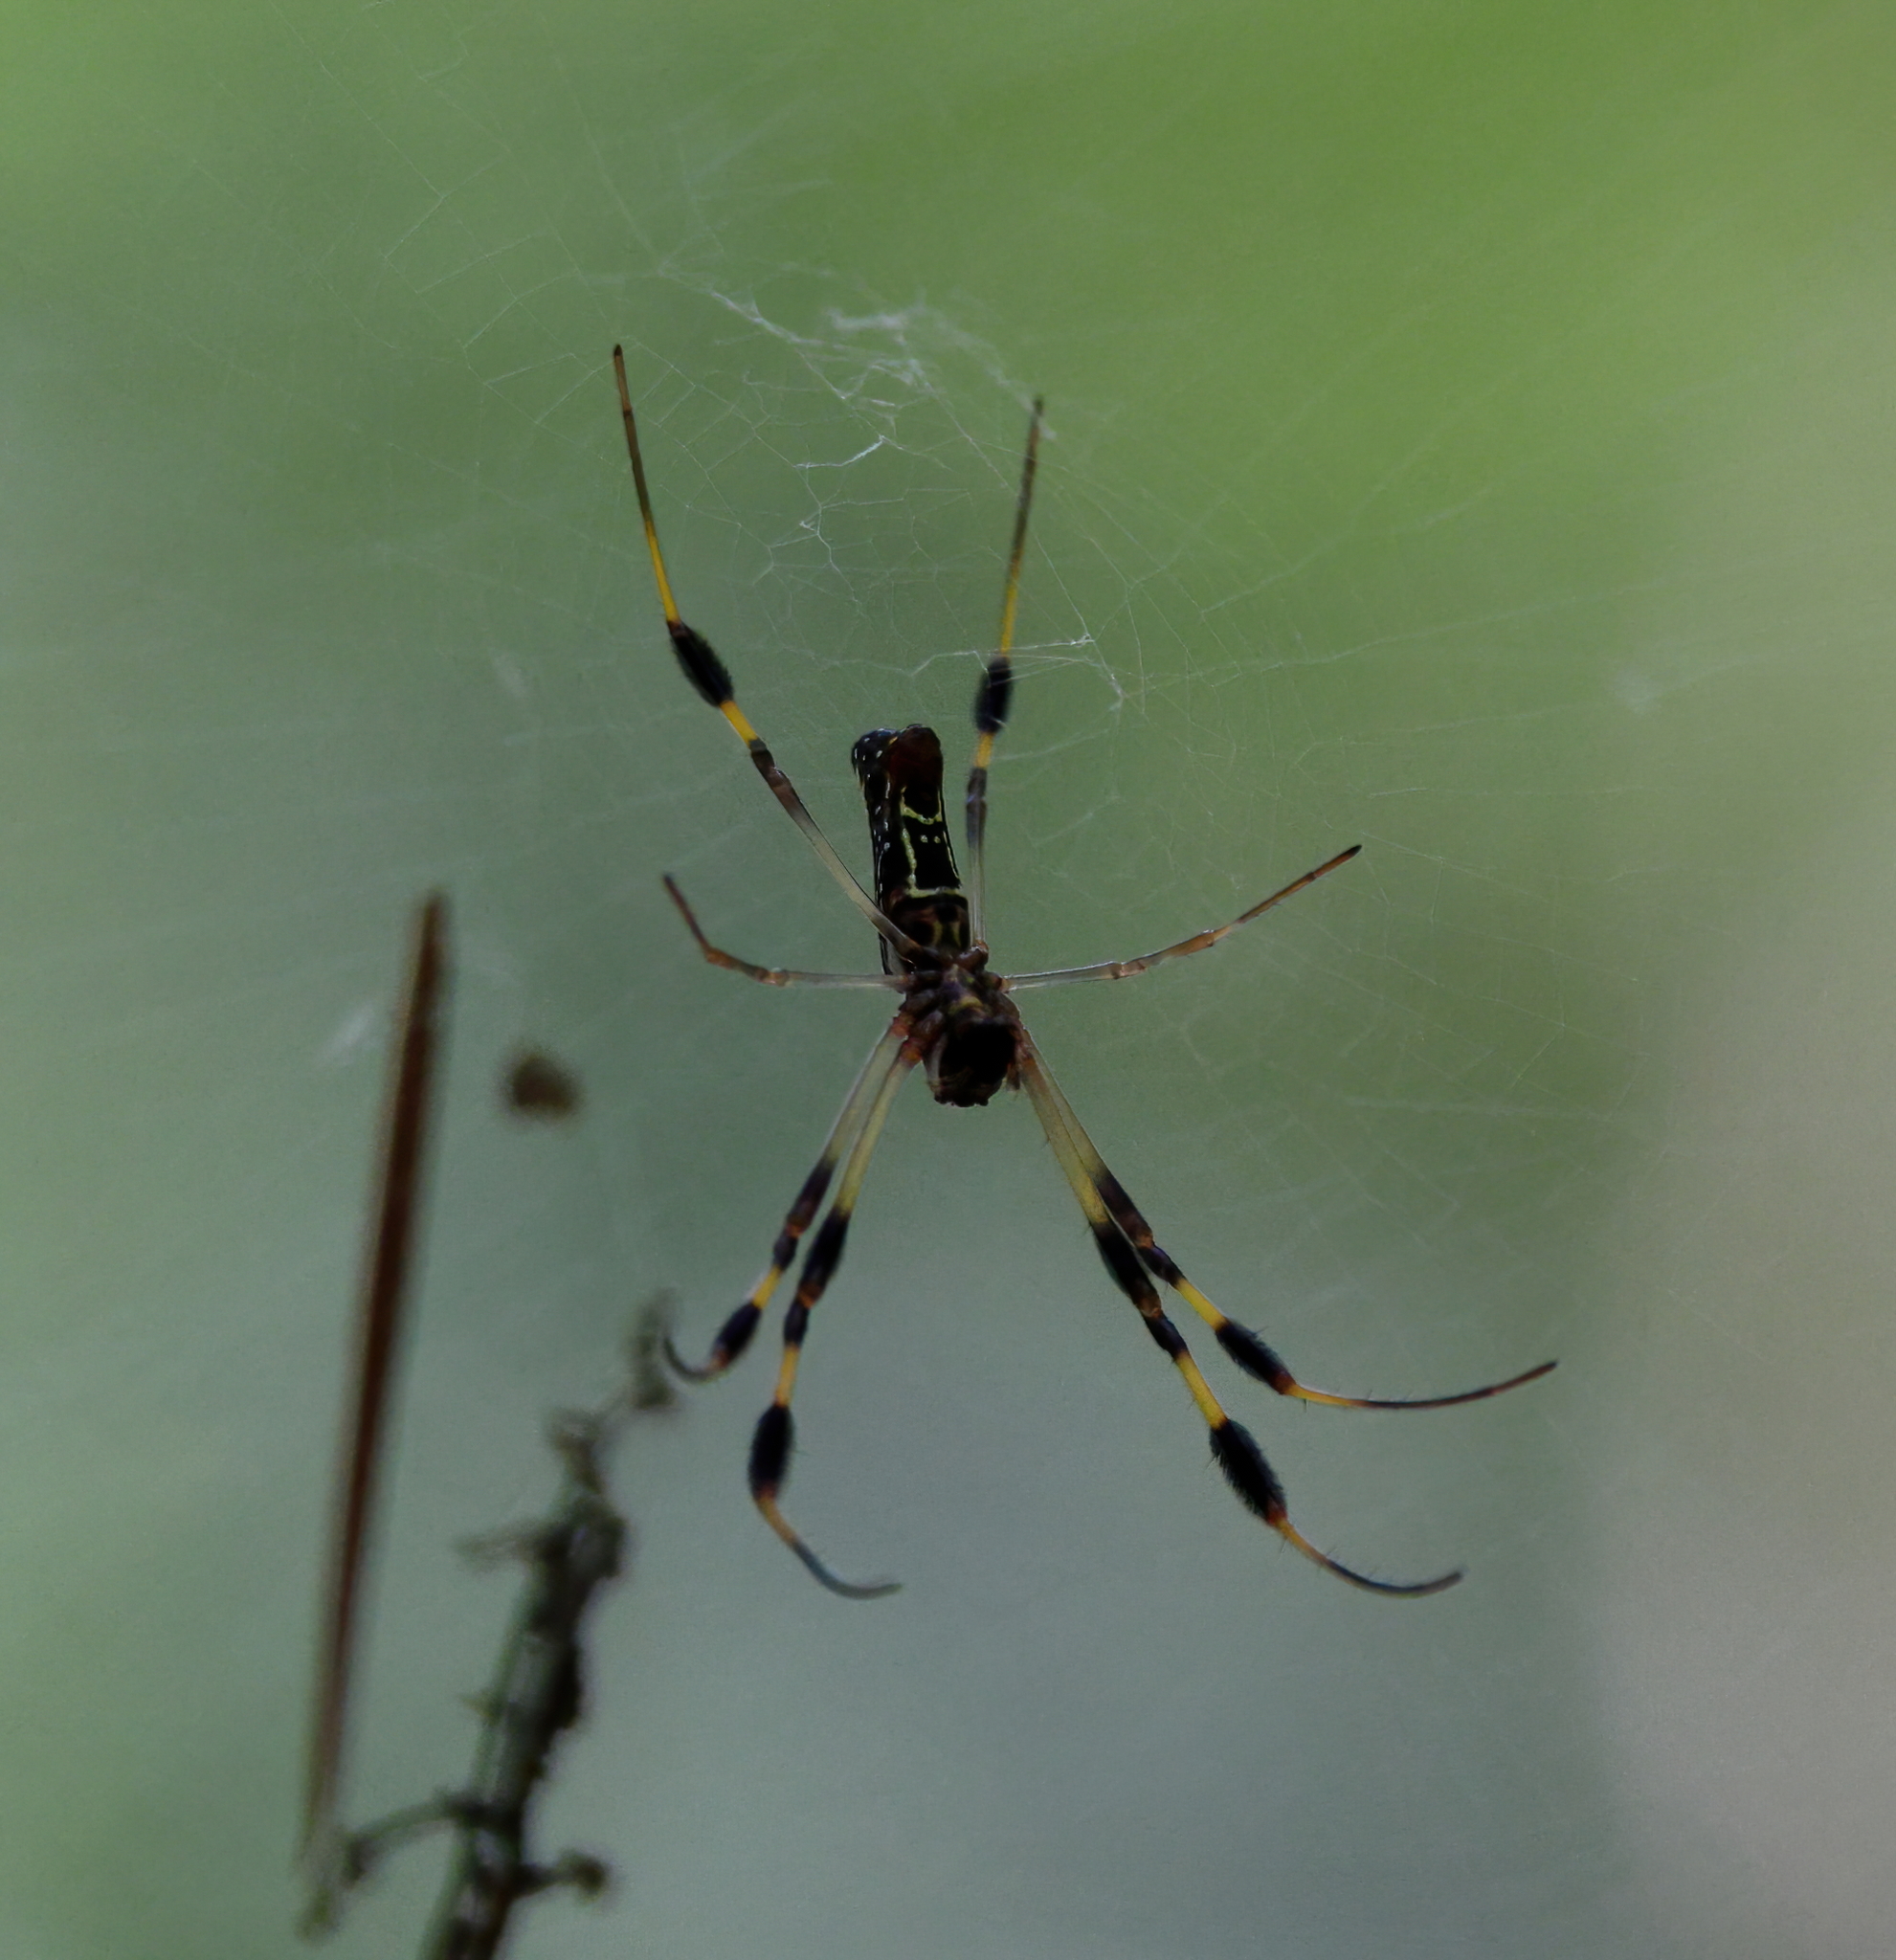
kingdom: Animalia
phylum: Arthropoda
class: Arachnida
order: Araneae
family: Araneidae
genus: Trichonephila
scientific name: Trichonephila clavipes
